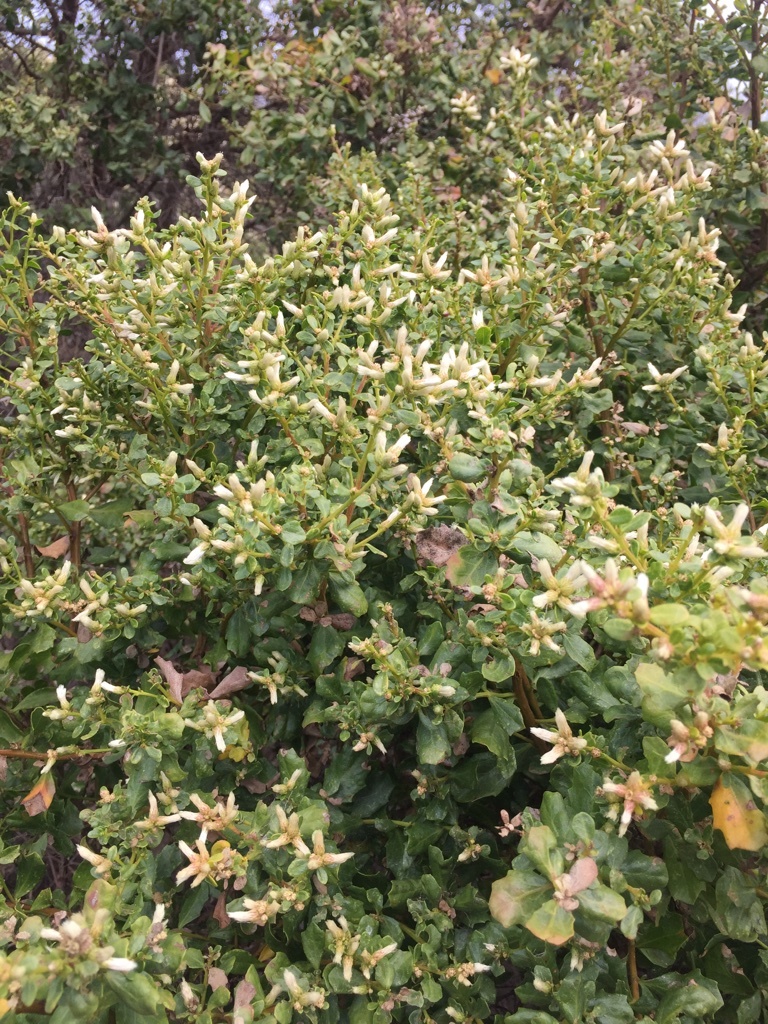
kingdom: Plantae
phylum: Tracheophyta
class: Magnoliopsida
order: Asterales
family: Asteraceae
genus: Baccharis
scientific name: Baccharis pilularis
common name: Coyotebrush
